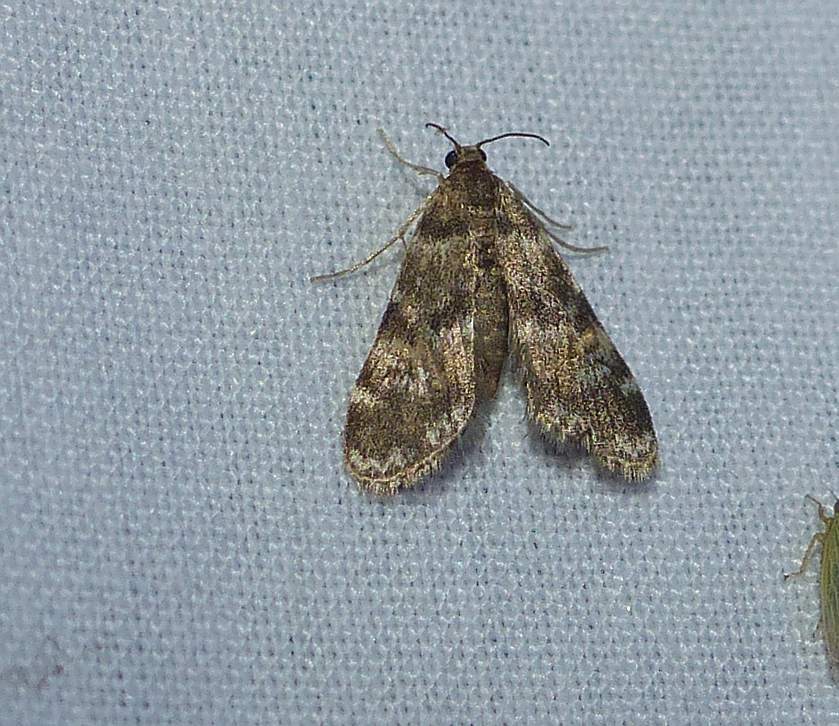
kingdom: Animalia
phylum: Arthropoda
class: Insecta
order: Lepidoptera
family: Crambidae
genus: Elophila
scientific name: Elophila obliteralis
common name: Waterlily leafcutter moth
